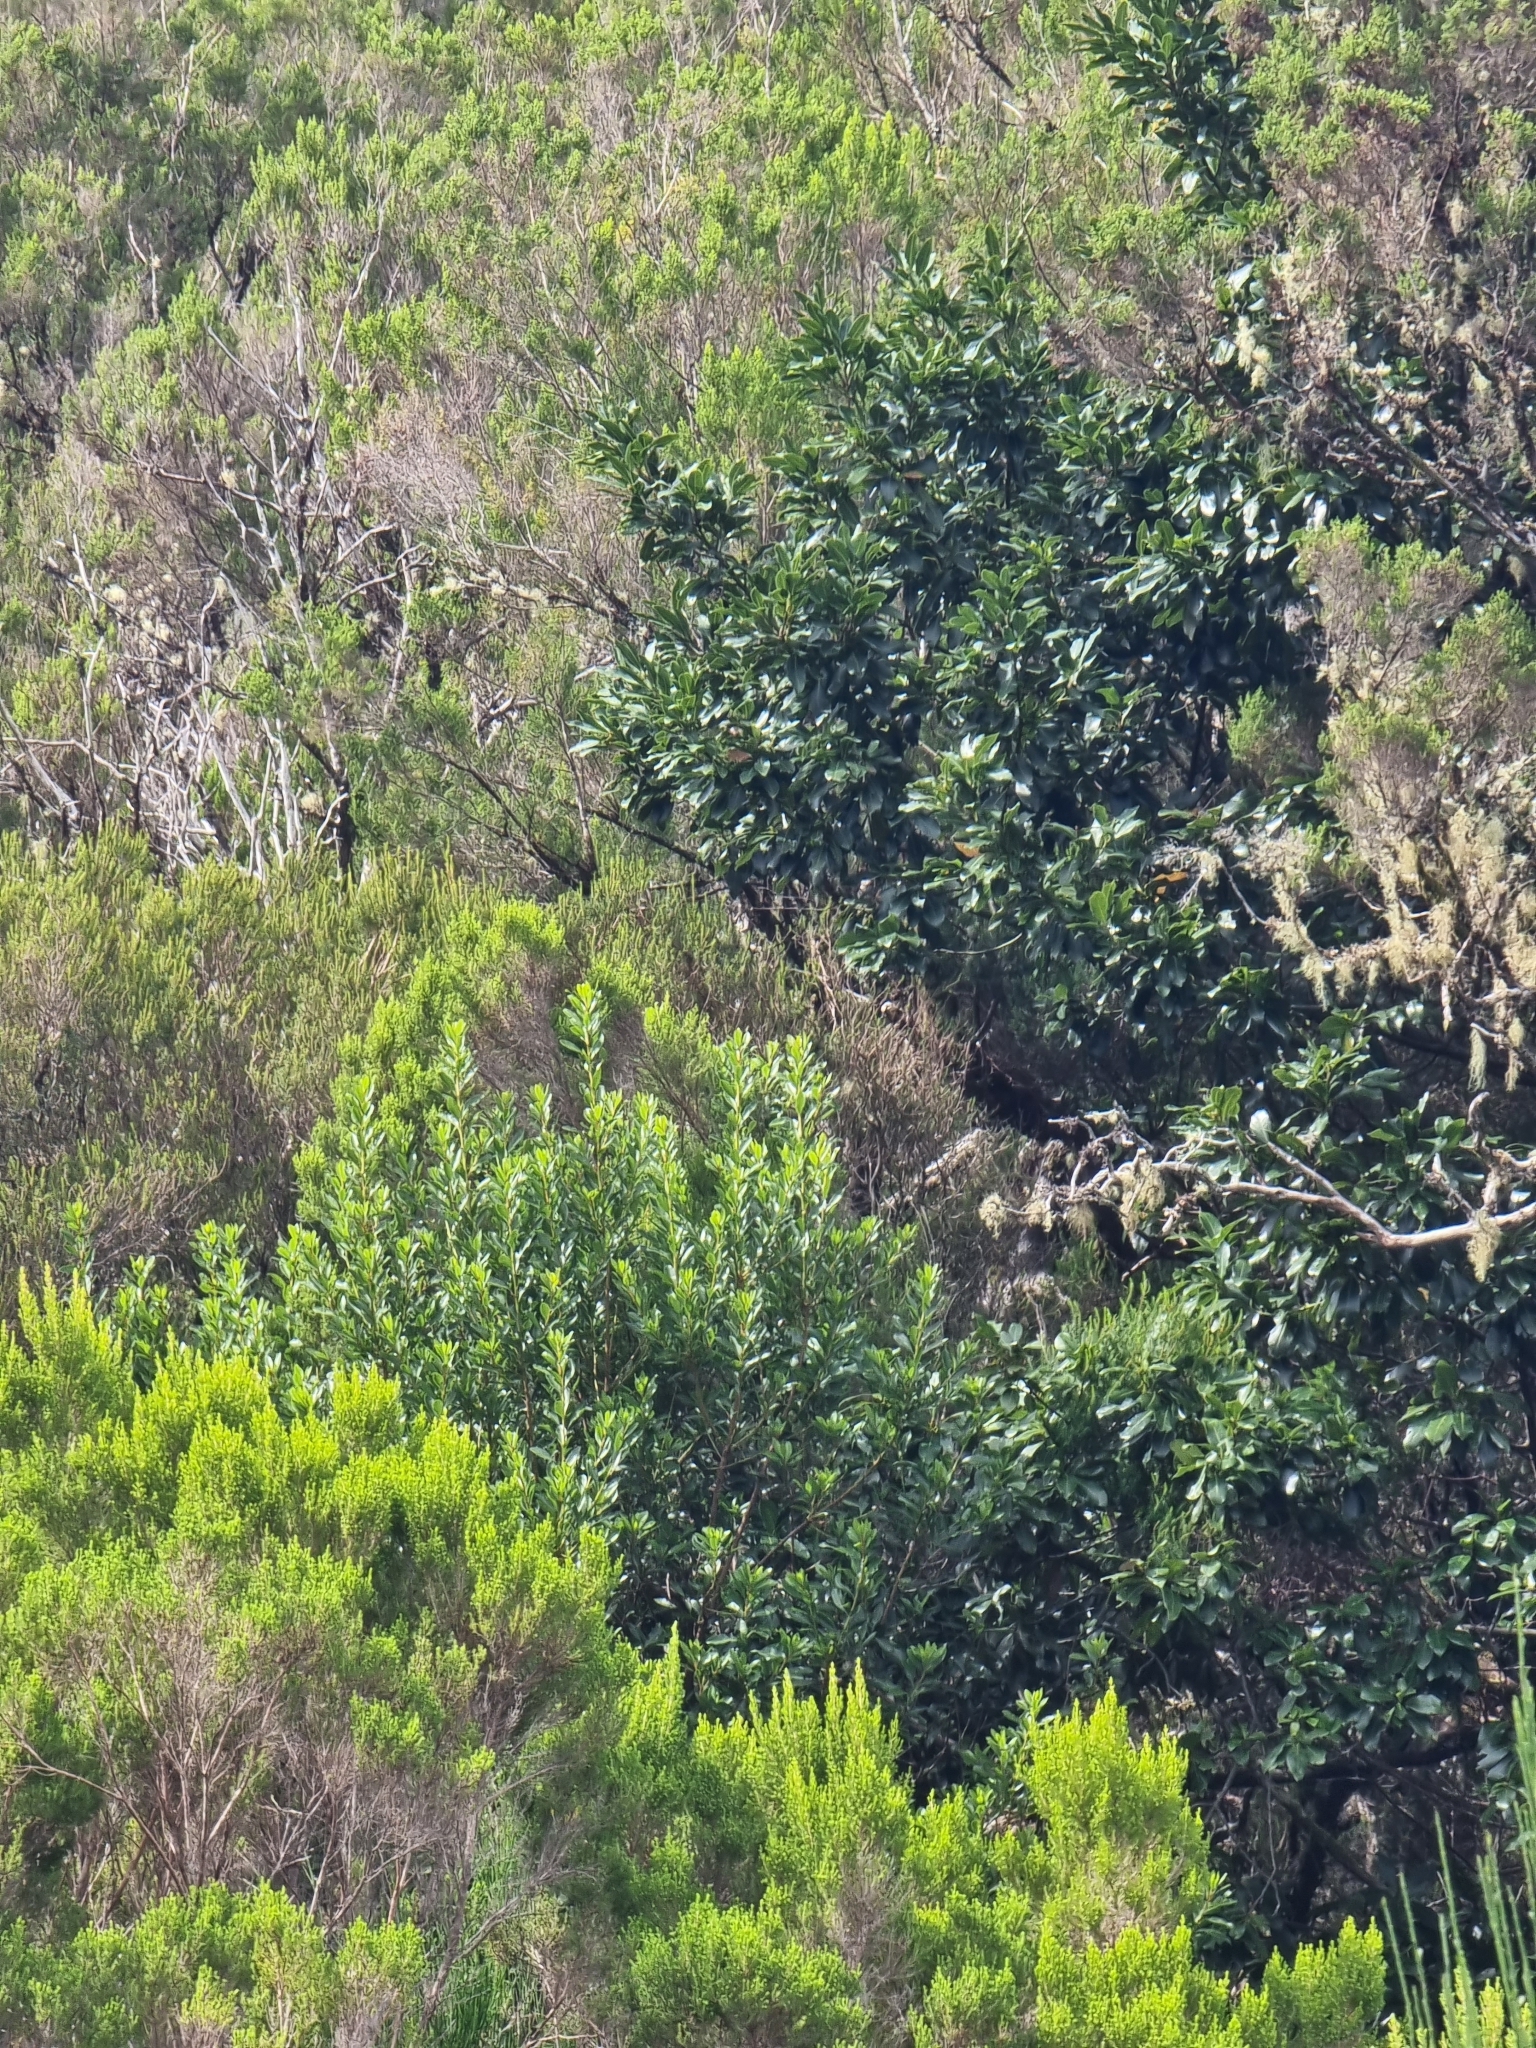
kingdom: Plantae
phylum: Tracheophyta
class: Magnoliopsida
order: Fagales
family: Myricaceae
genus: Morella
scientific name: Morella faya
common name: Firetree
